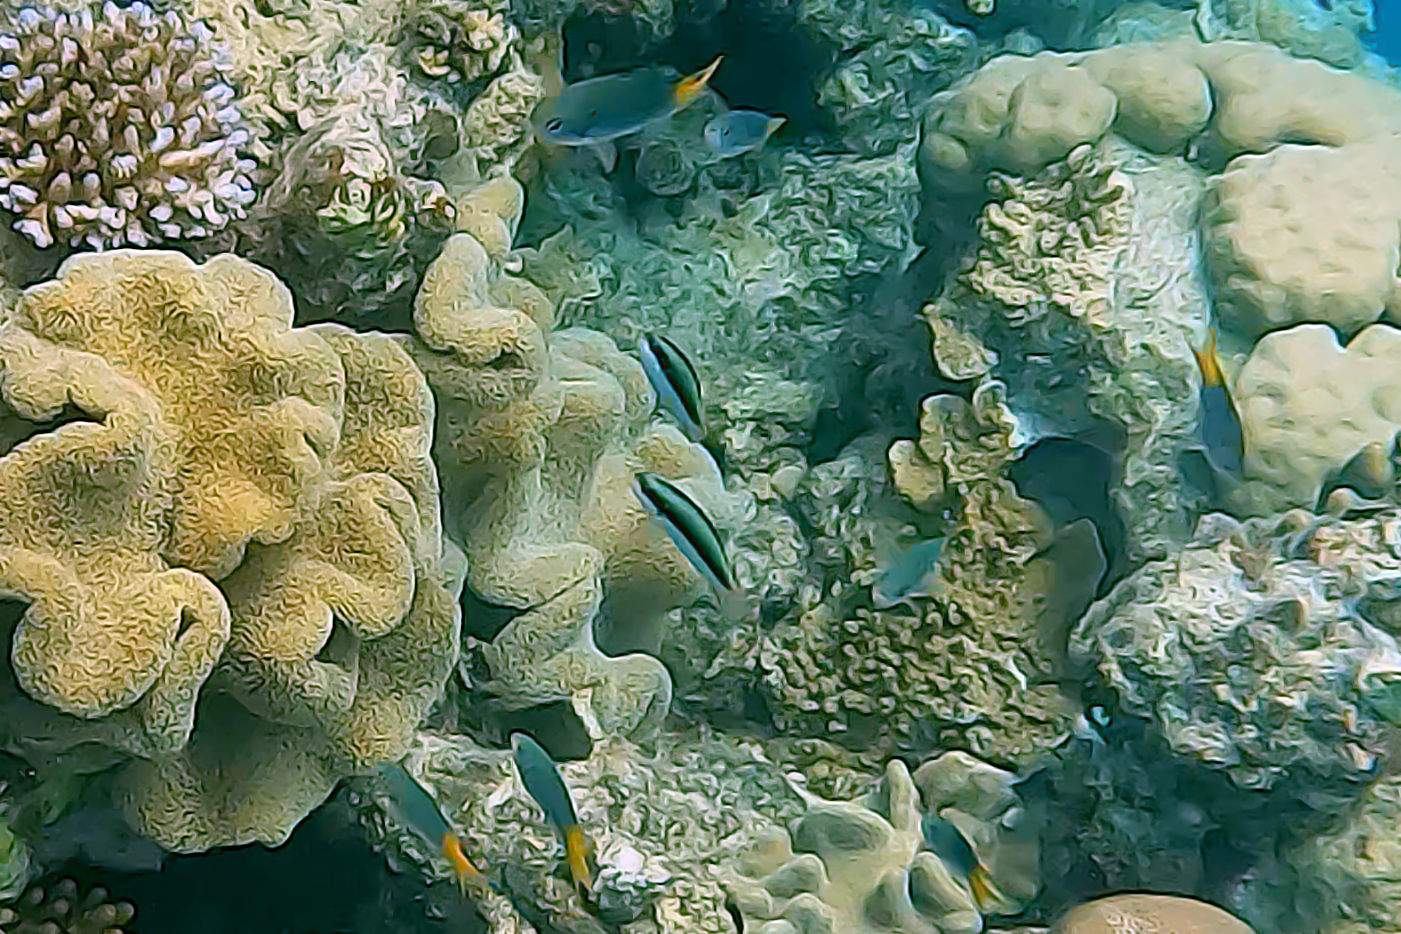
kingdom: Animalia
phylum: Chordata
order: Perciformes
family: Labridae
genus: Thalassoma
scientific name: Thalassoma amblycephalum
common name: Bluehead wrasse
